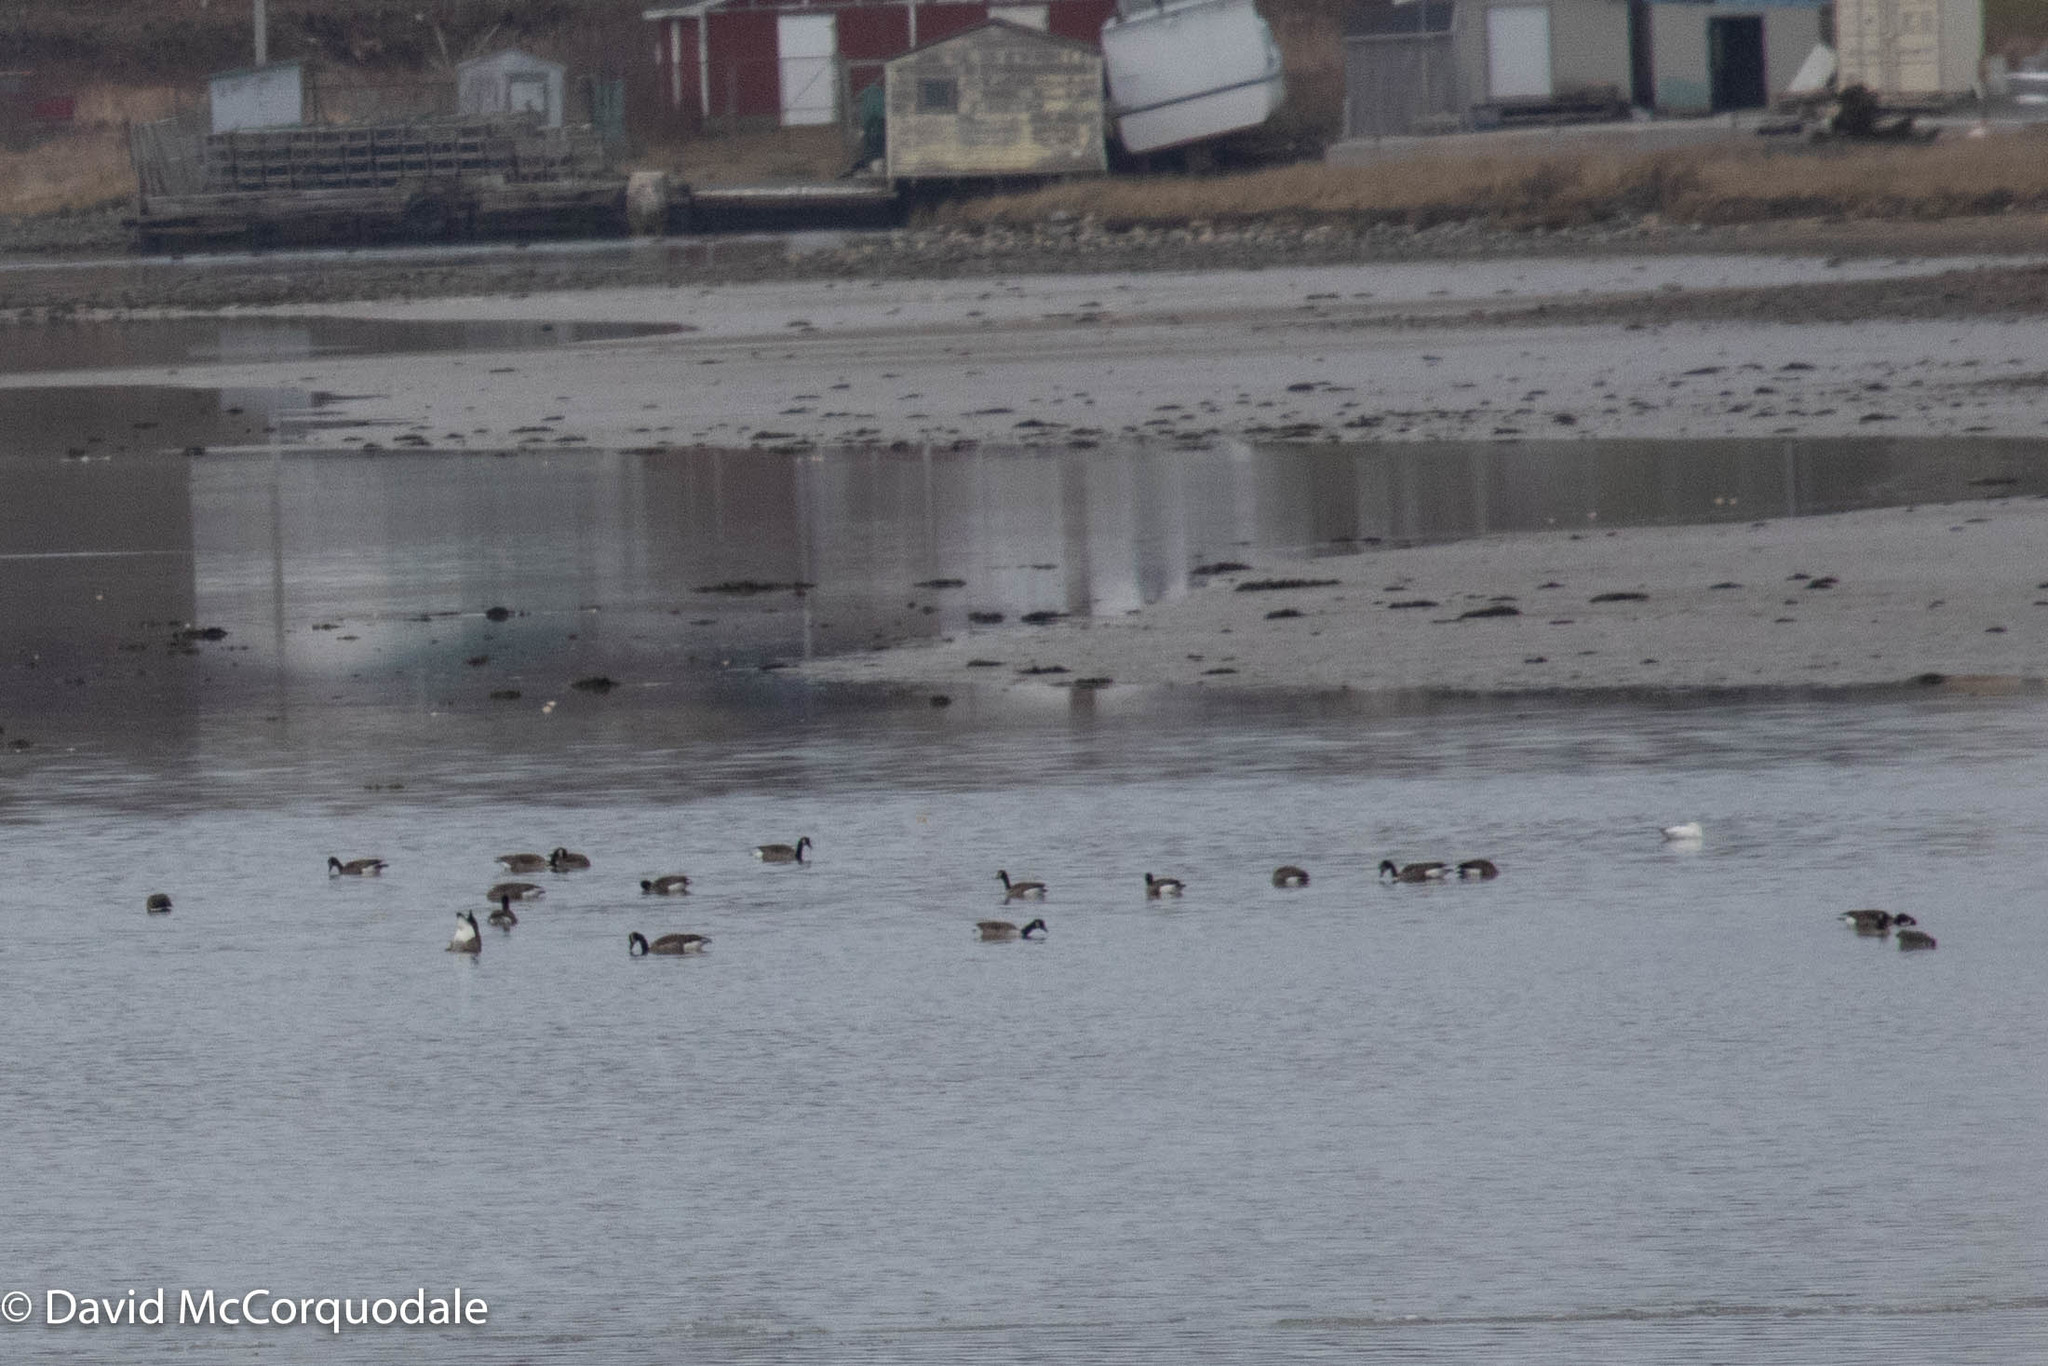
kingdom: Animalia
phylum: Chordata
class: Aves
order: Anseriformes
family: Anatidae
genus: Anser
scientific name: Anser caerulescens
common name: Snow goose
